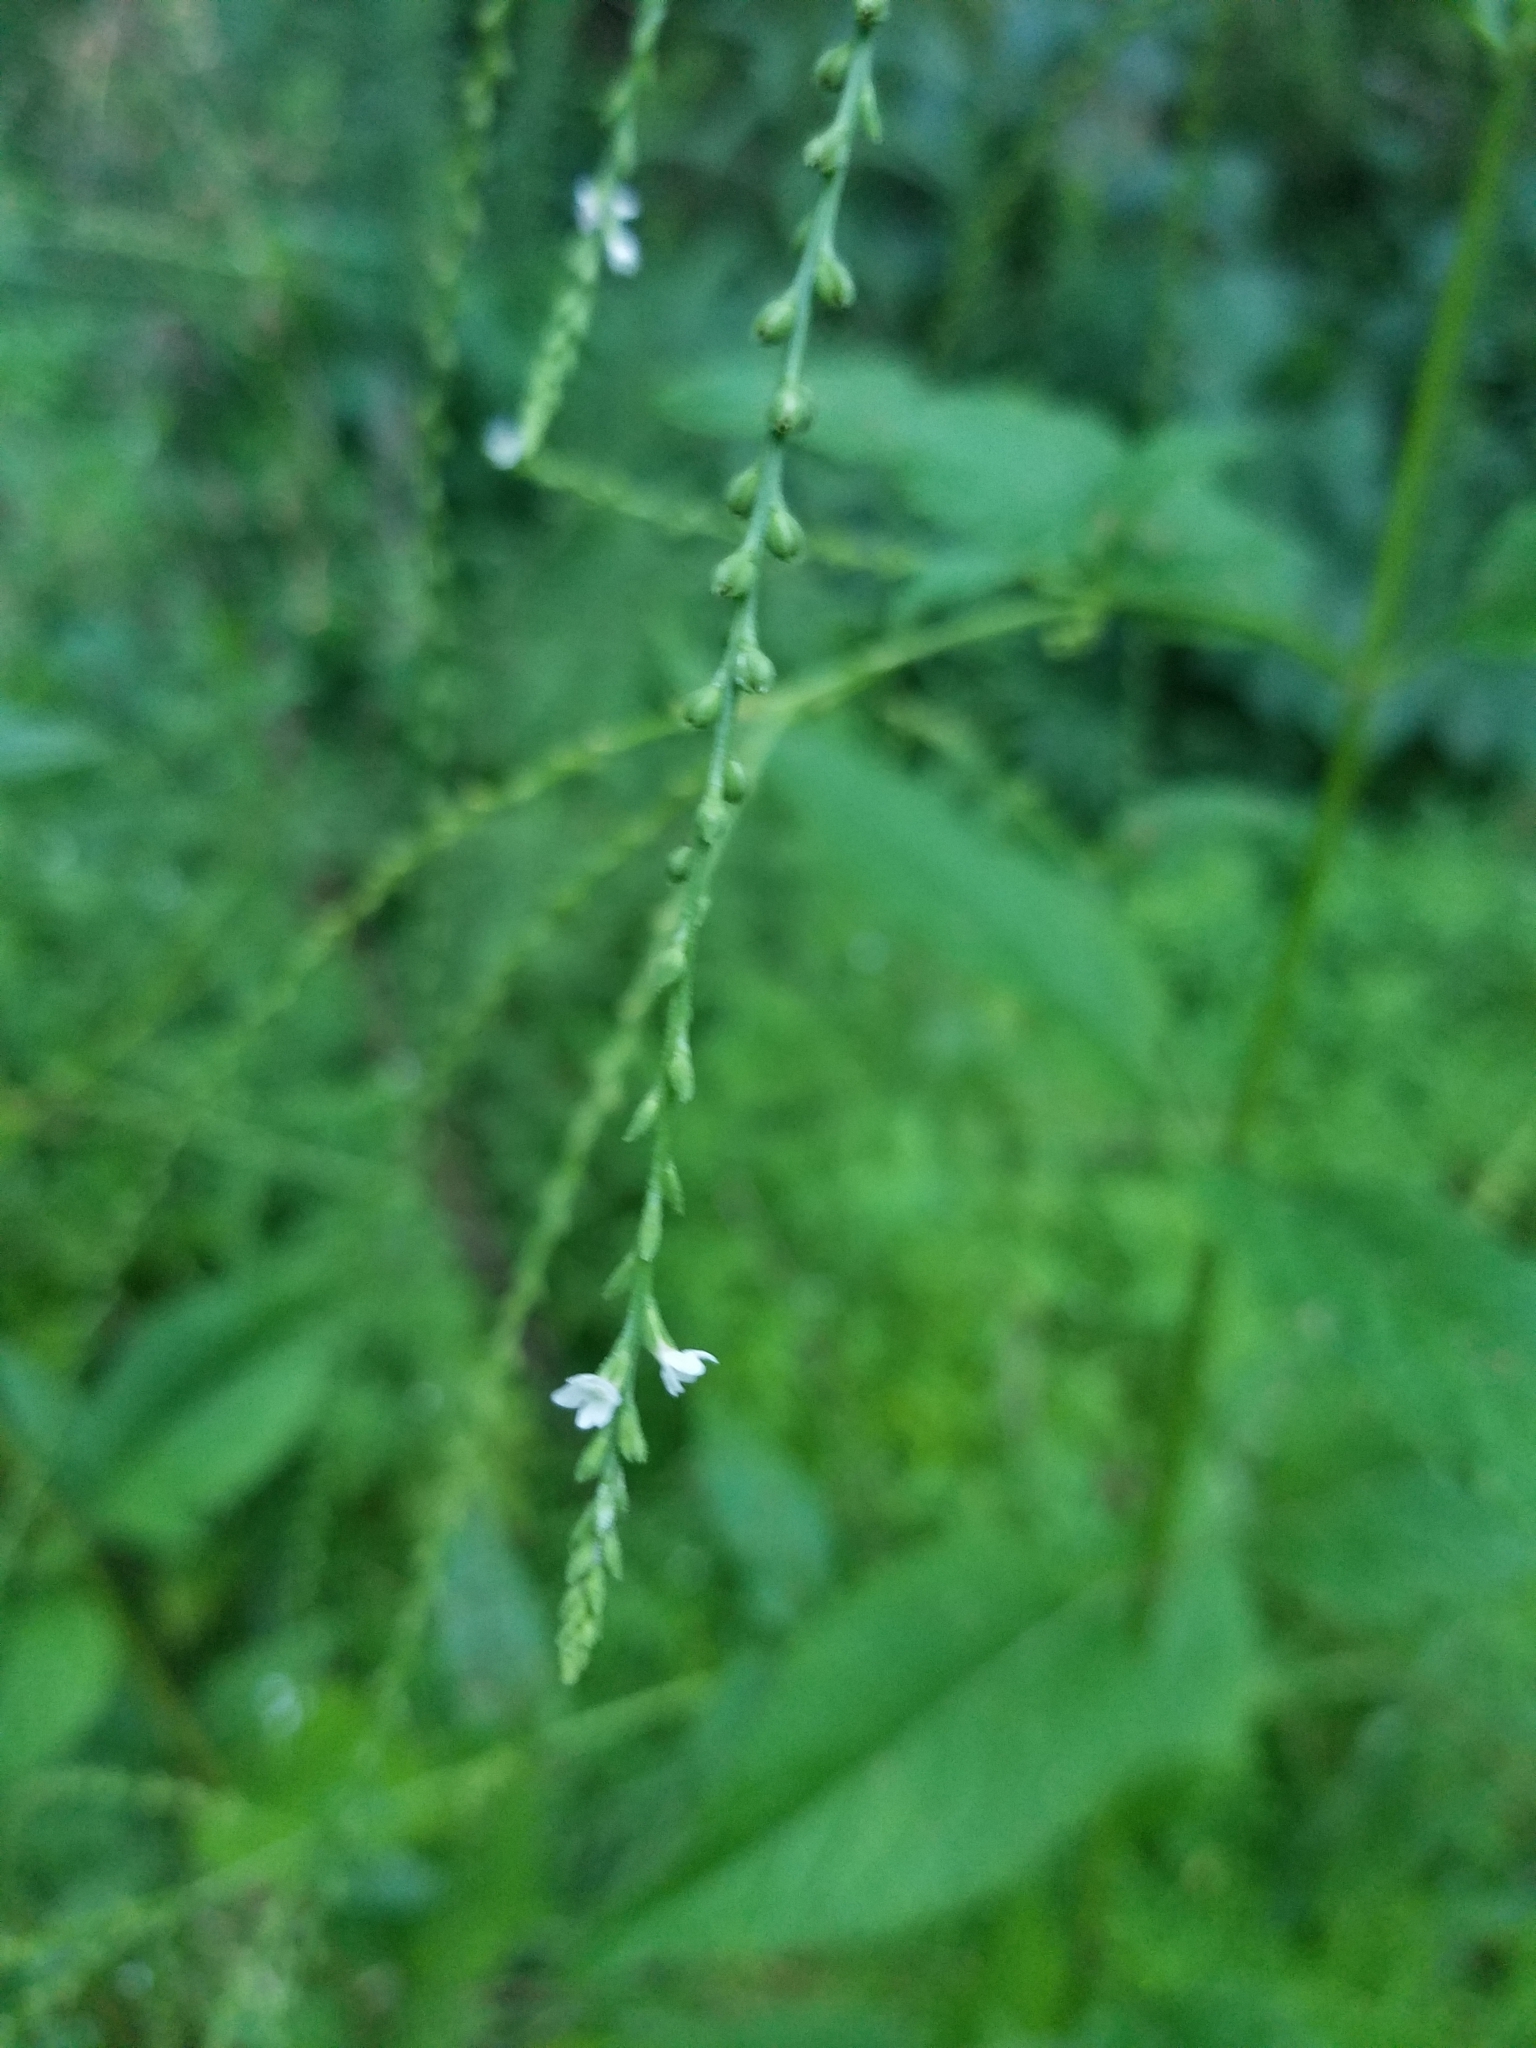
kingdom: Plantae
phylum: Tracheophyta
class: Magnoliopsida
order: Lamiales
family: Verbenaceae
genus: Verbena
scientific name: Verbena urticifolia
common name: Nettle-leaved vervain
